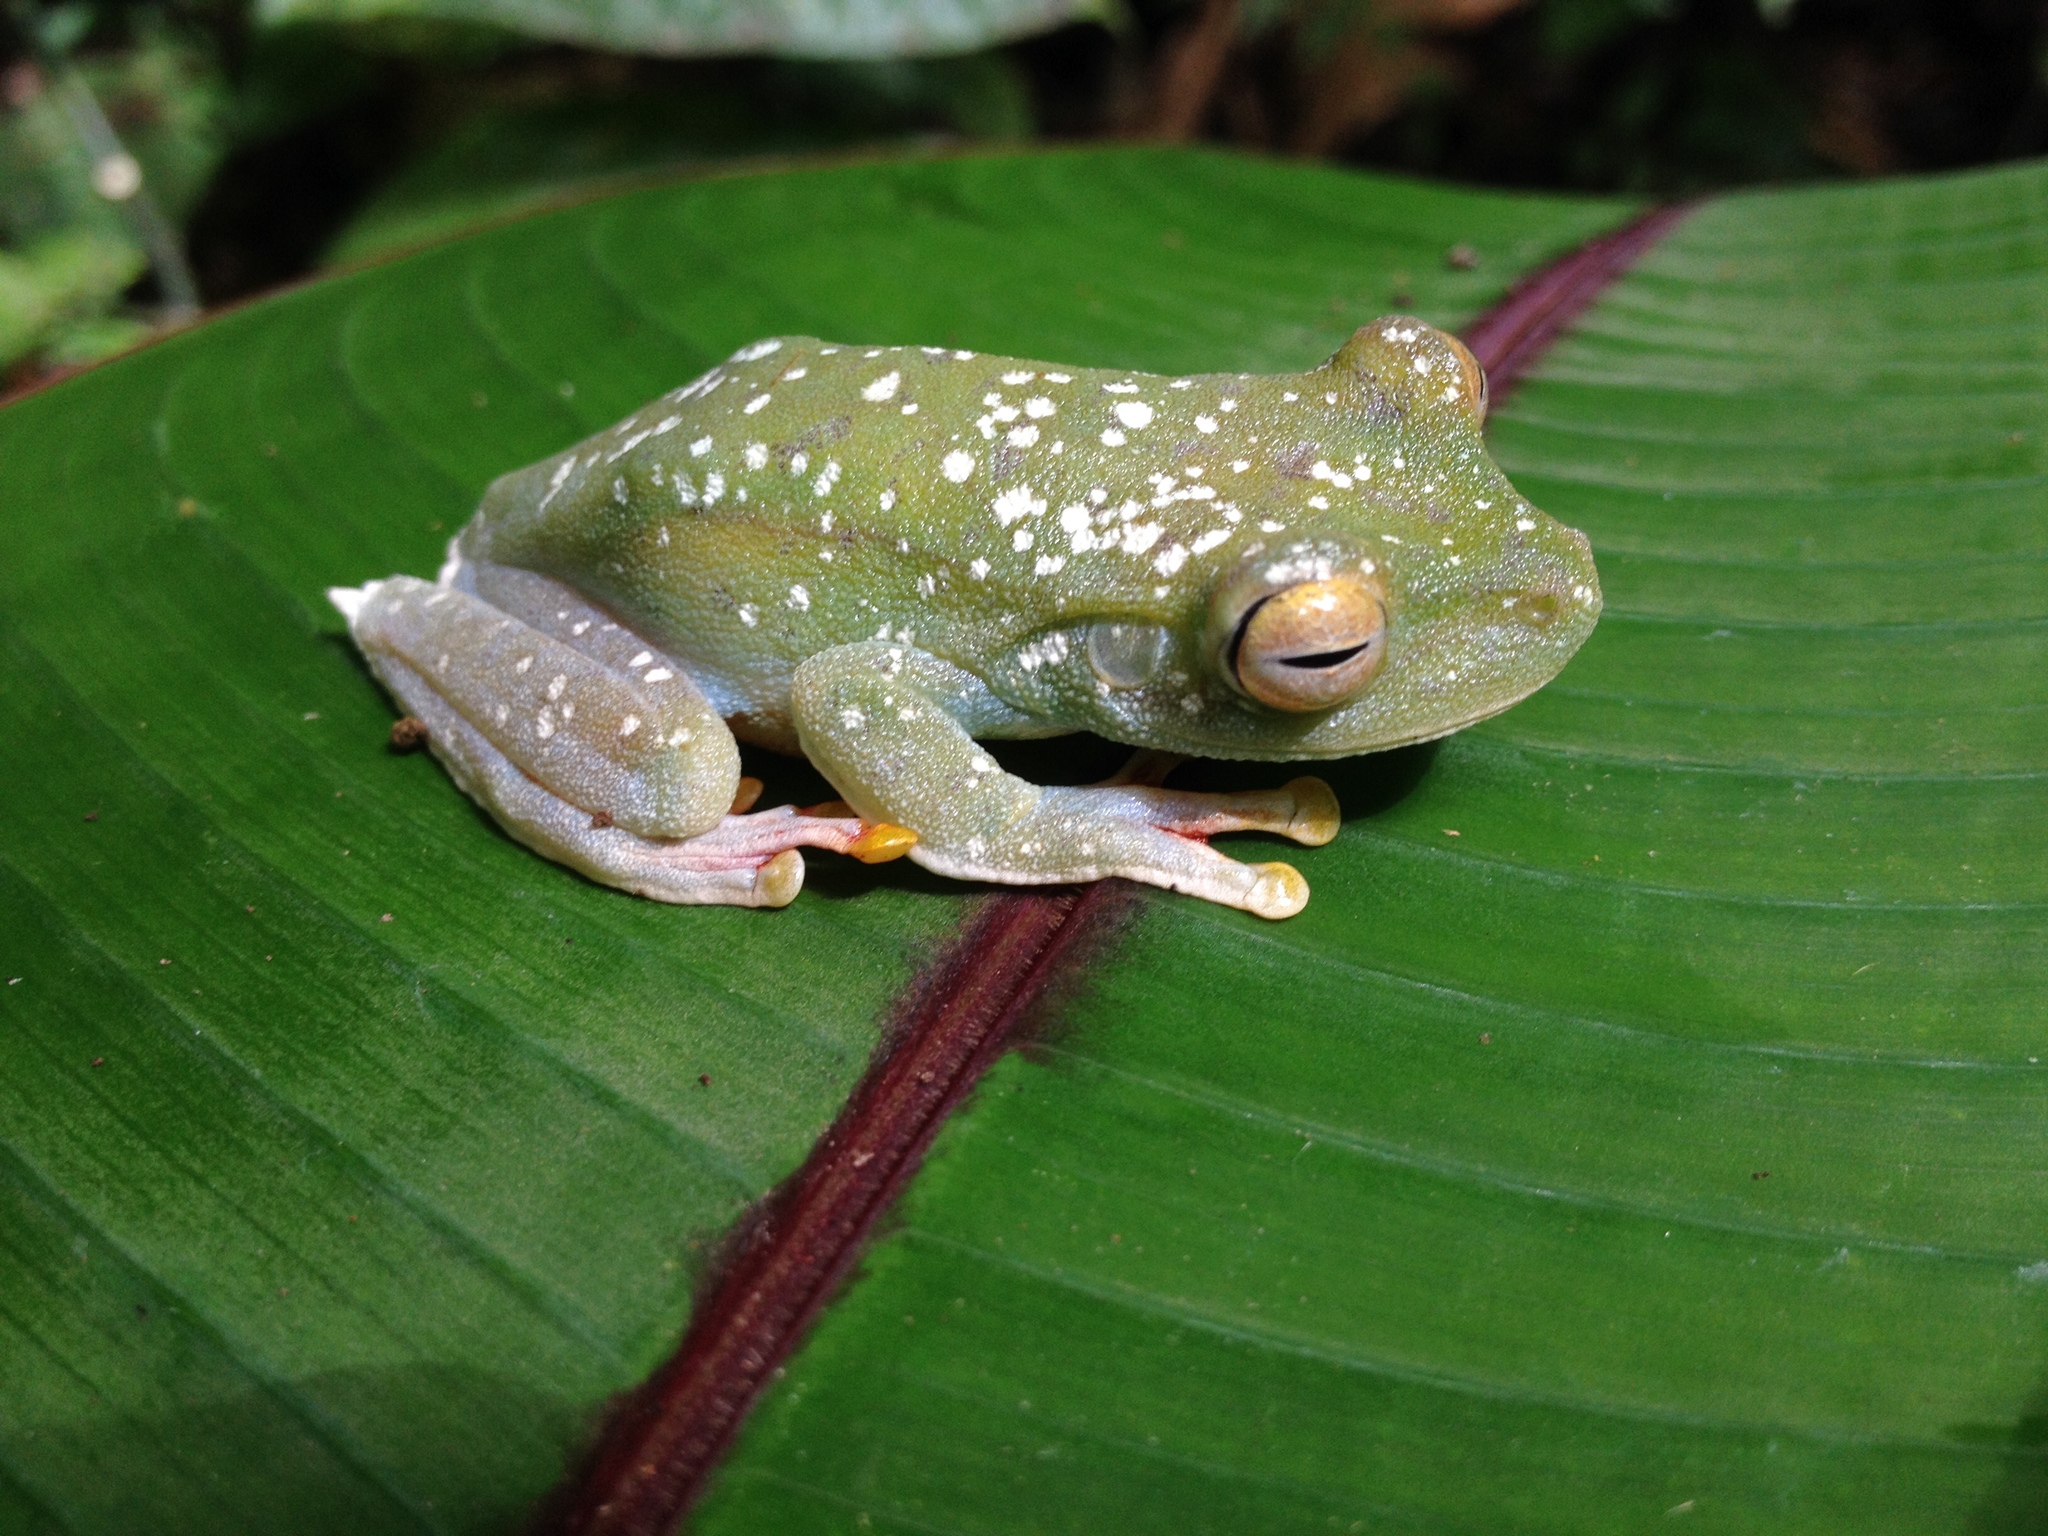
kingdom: Animalia
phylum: Chordata
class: Amphibia
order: Anura
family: Hylidae
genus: Boana
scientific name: Boana rufitela
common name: Canal zone treefrog
